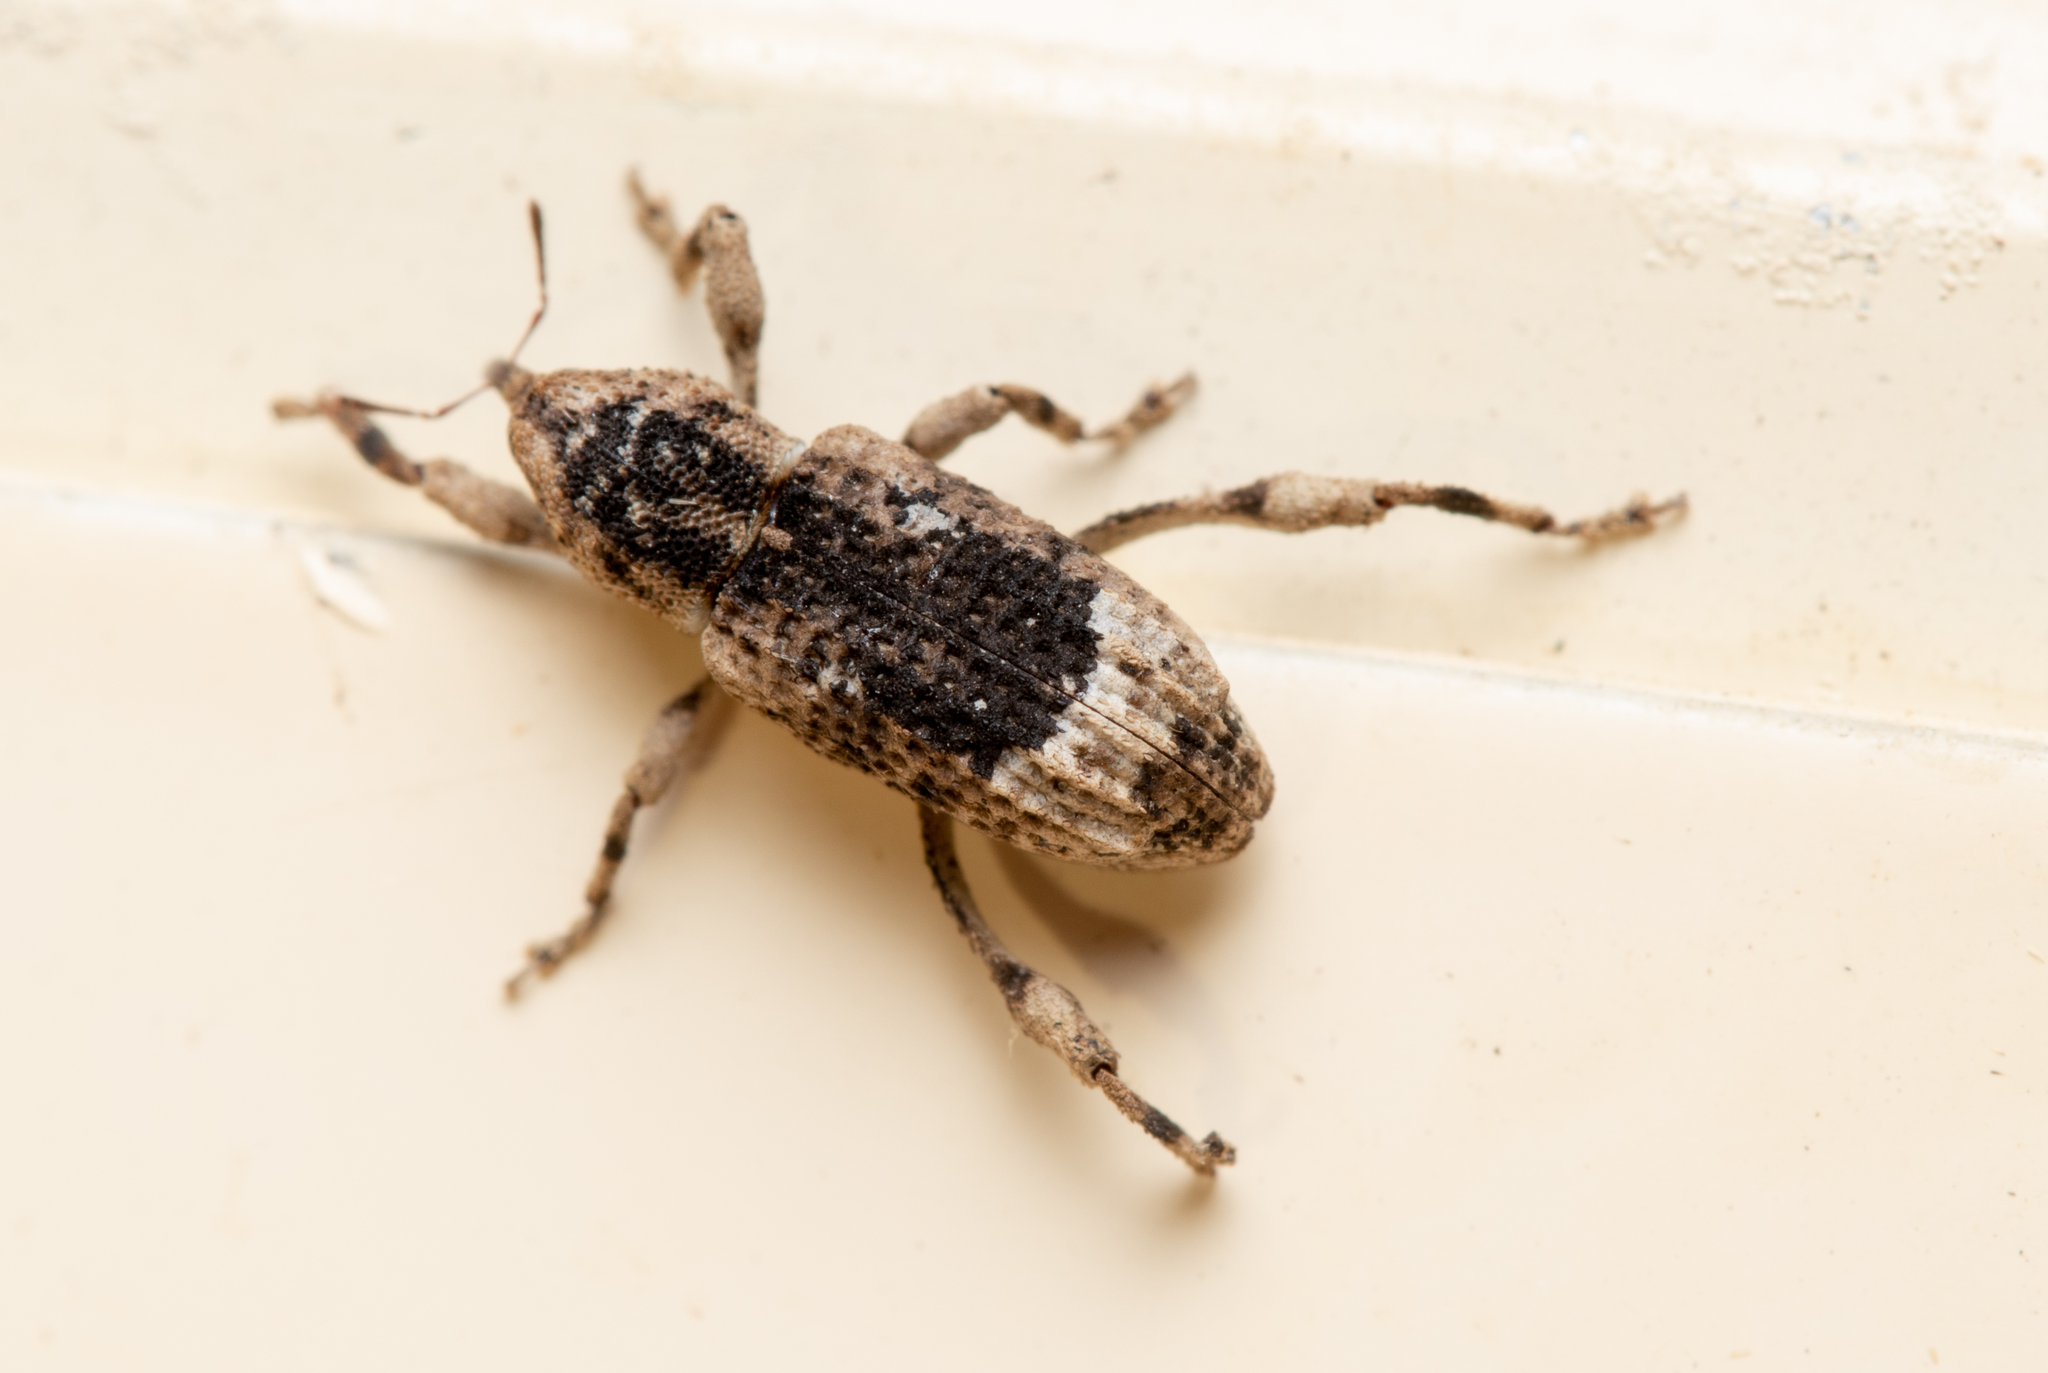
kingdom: Animalia
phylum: Arthropoda
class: Insecta
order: Coleoptera
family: Curculionidae
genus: Camptorhinus
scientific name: Camptorhinus dorsalis
